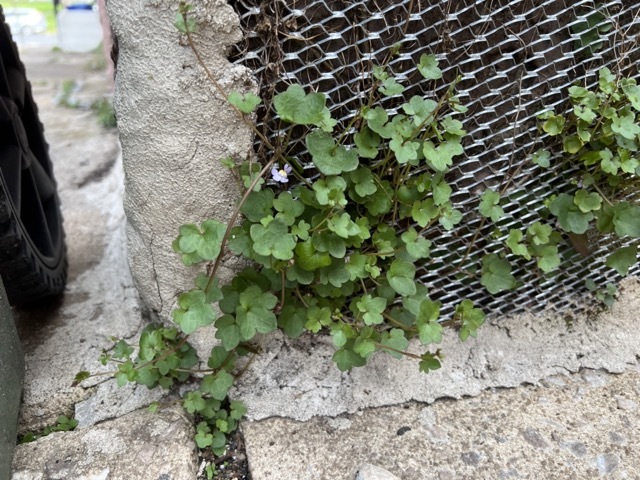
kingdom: Plantae
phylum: Tracheophyta
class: Magnoliopsida
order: Lamiales
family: Plantaginaceae
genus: Cymbalaria
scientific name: Cymbalaria muralis
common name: Ivy-leaved toadflax
